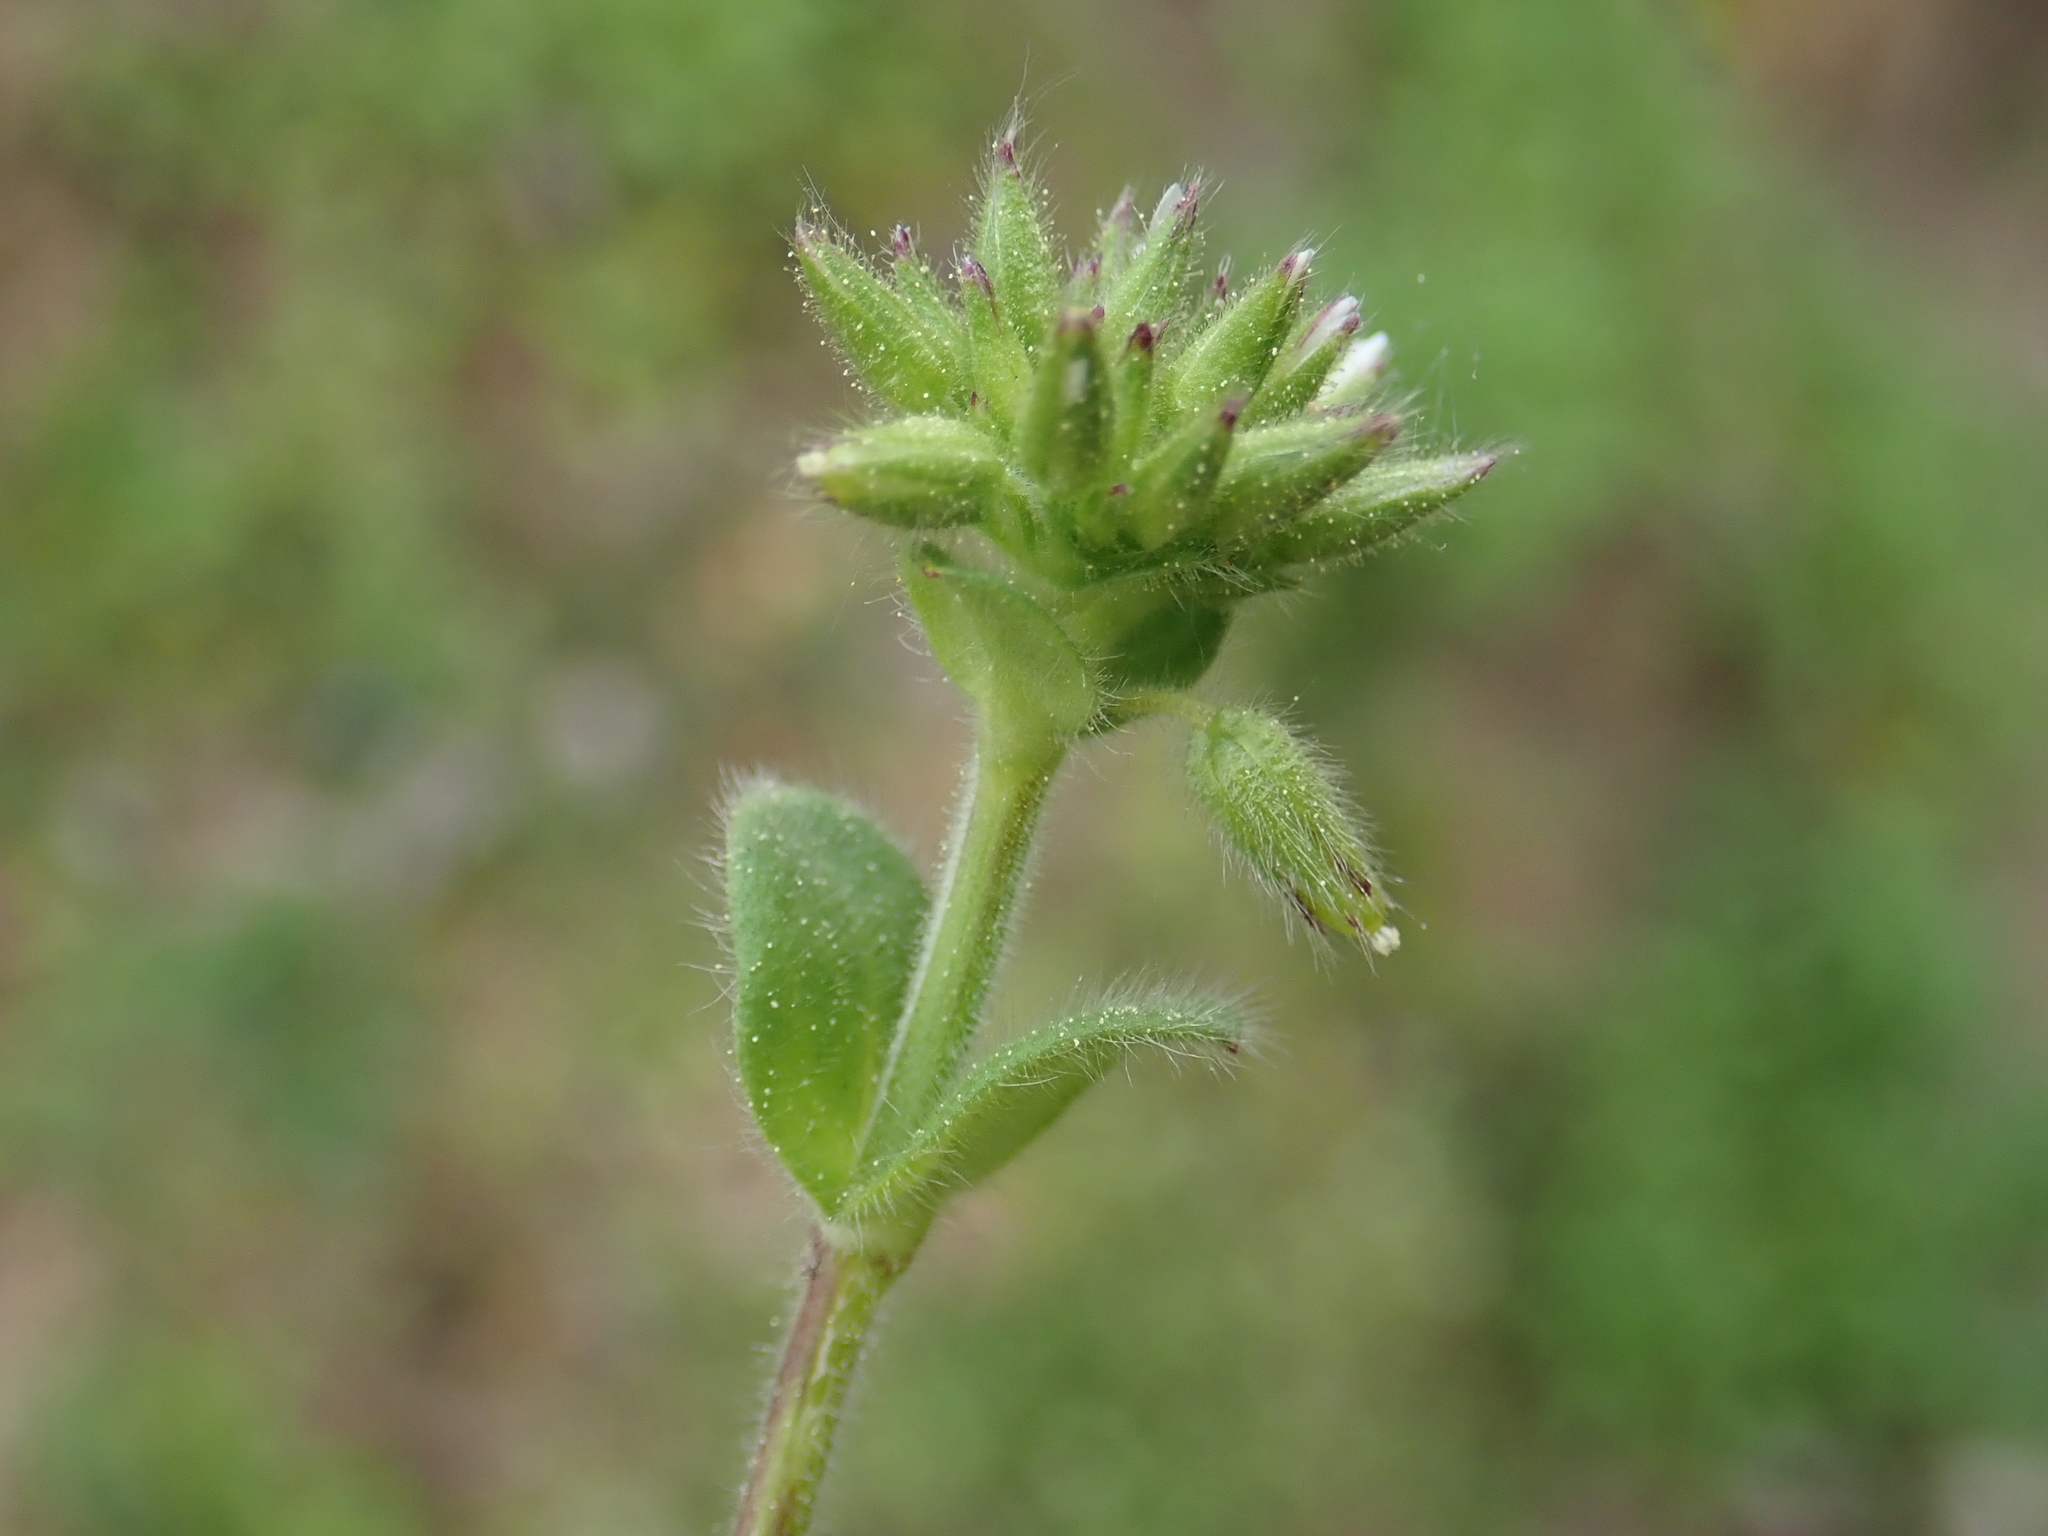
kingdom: Plantae
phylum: Tracheophyta
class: Magnoliopsida
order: Caryophyllales
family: Caryophyllaceae
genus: Cerastium
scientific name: Cerastium glomeratum
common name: Sticky chickweed
